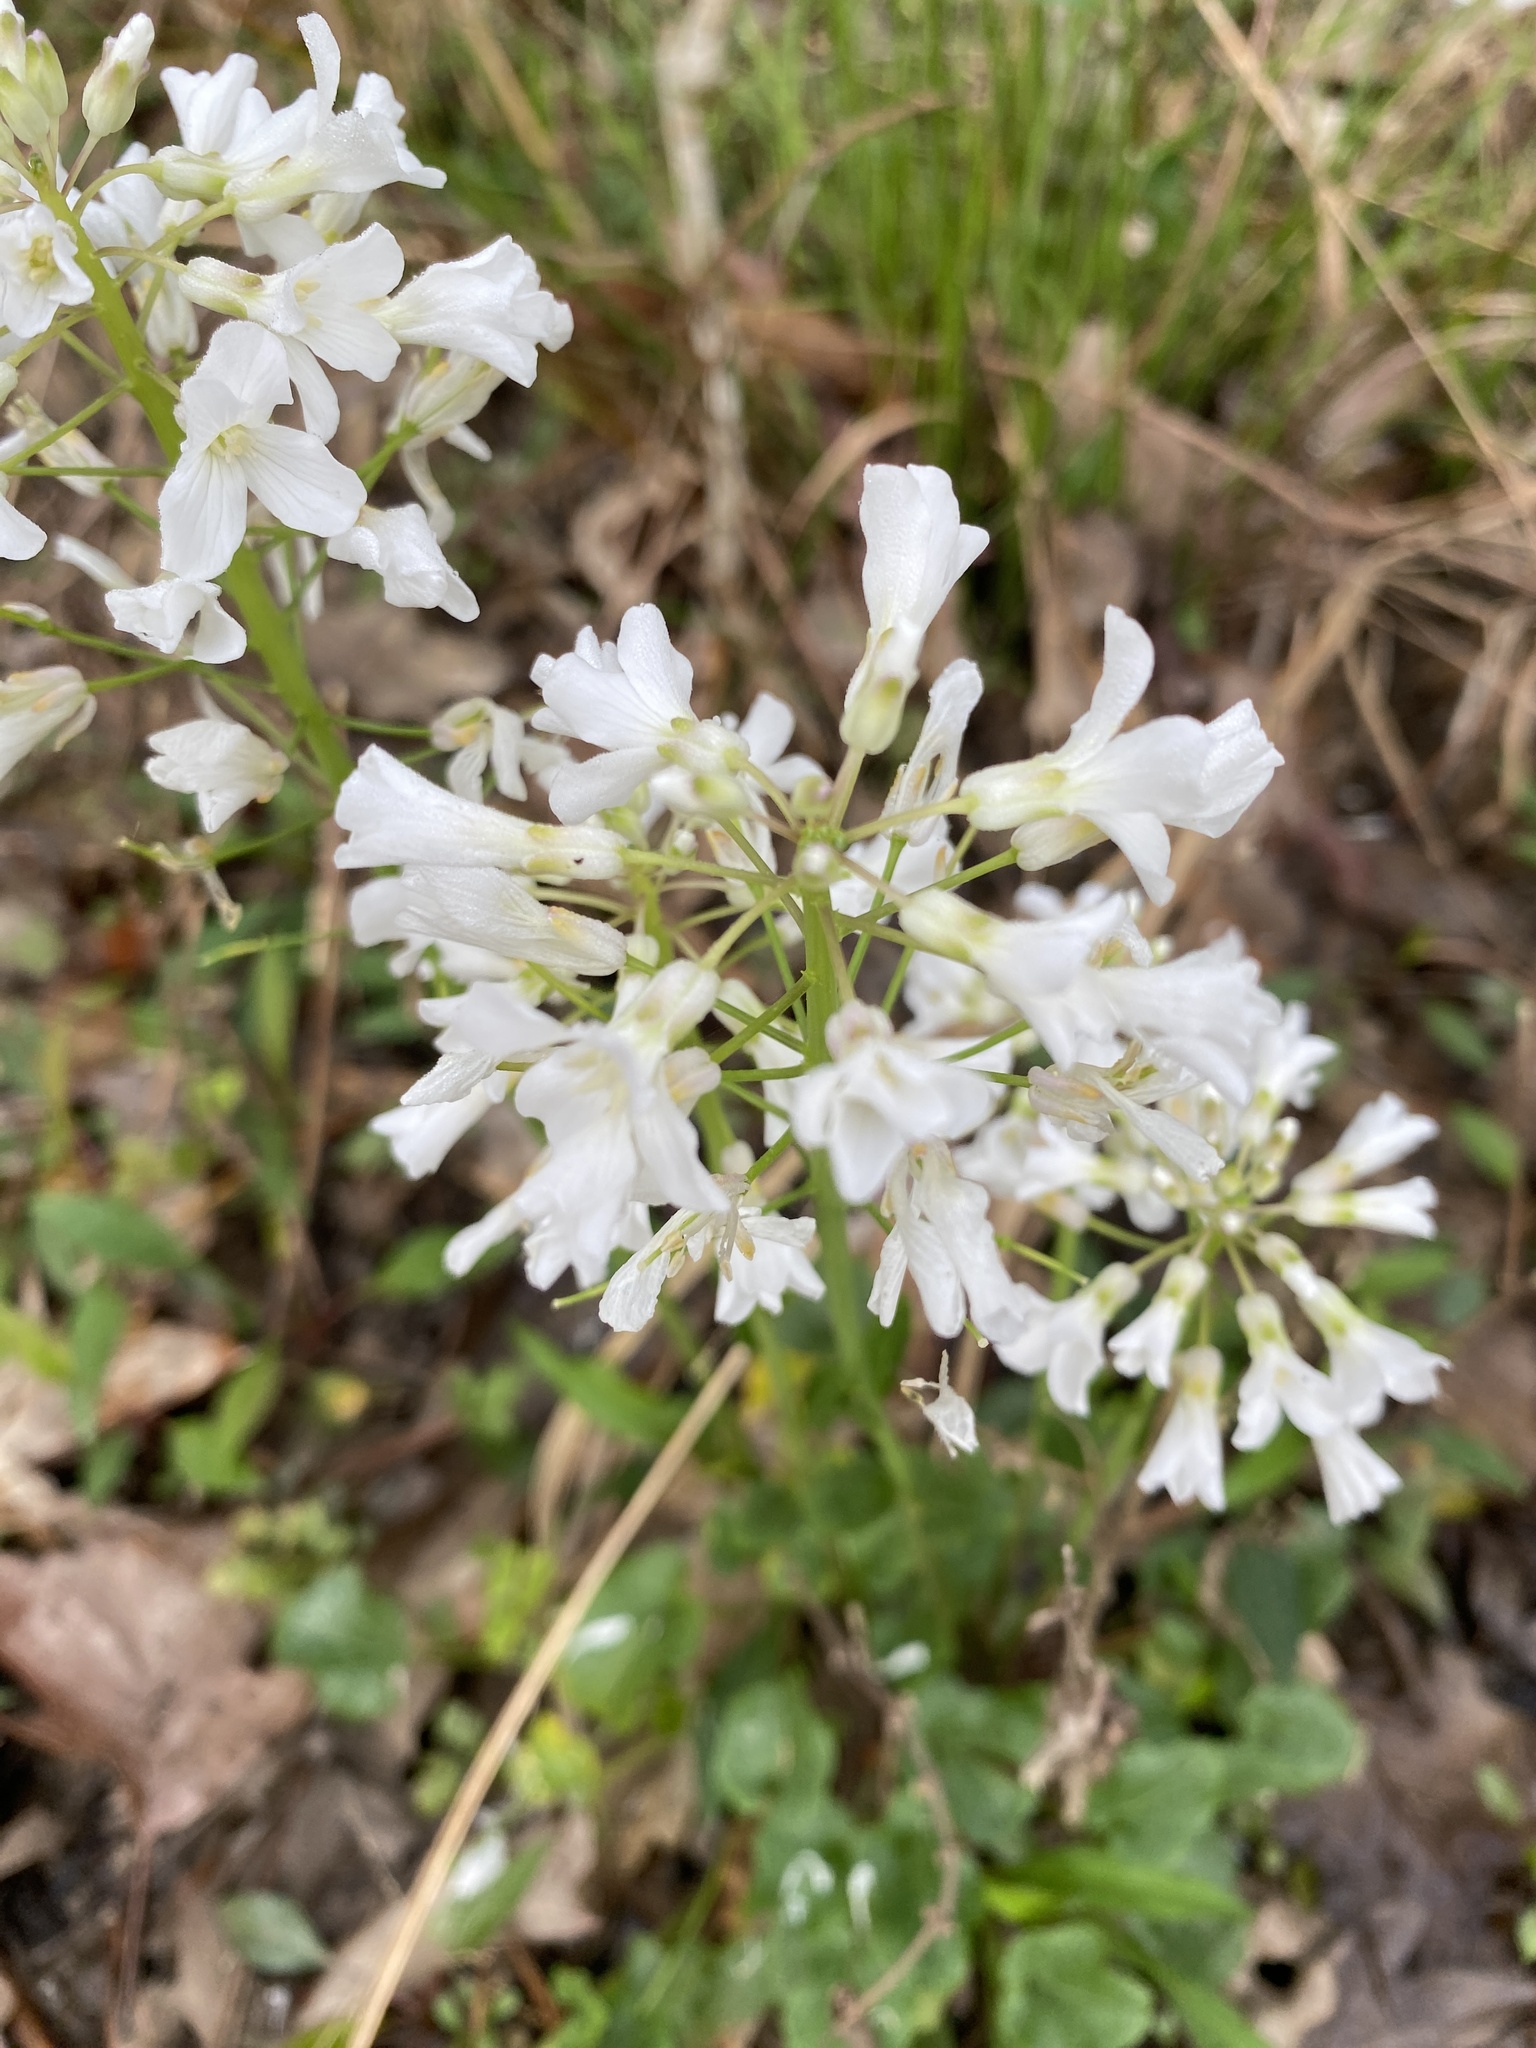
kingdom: Plantae
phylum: Tracheophyta
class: Magnoliopsida
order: Brassicales
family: Brassicaceae
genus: Cardamine
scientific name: Cardamine bulbosa
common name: Spring cress
